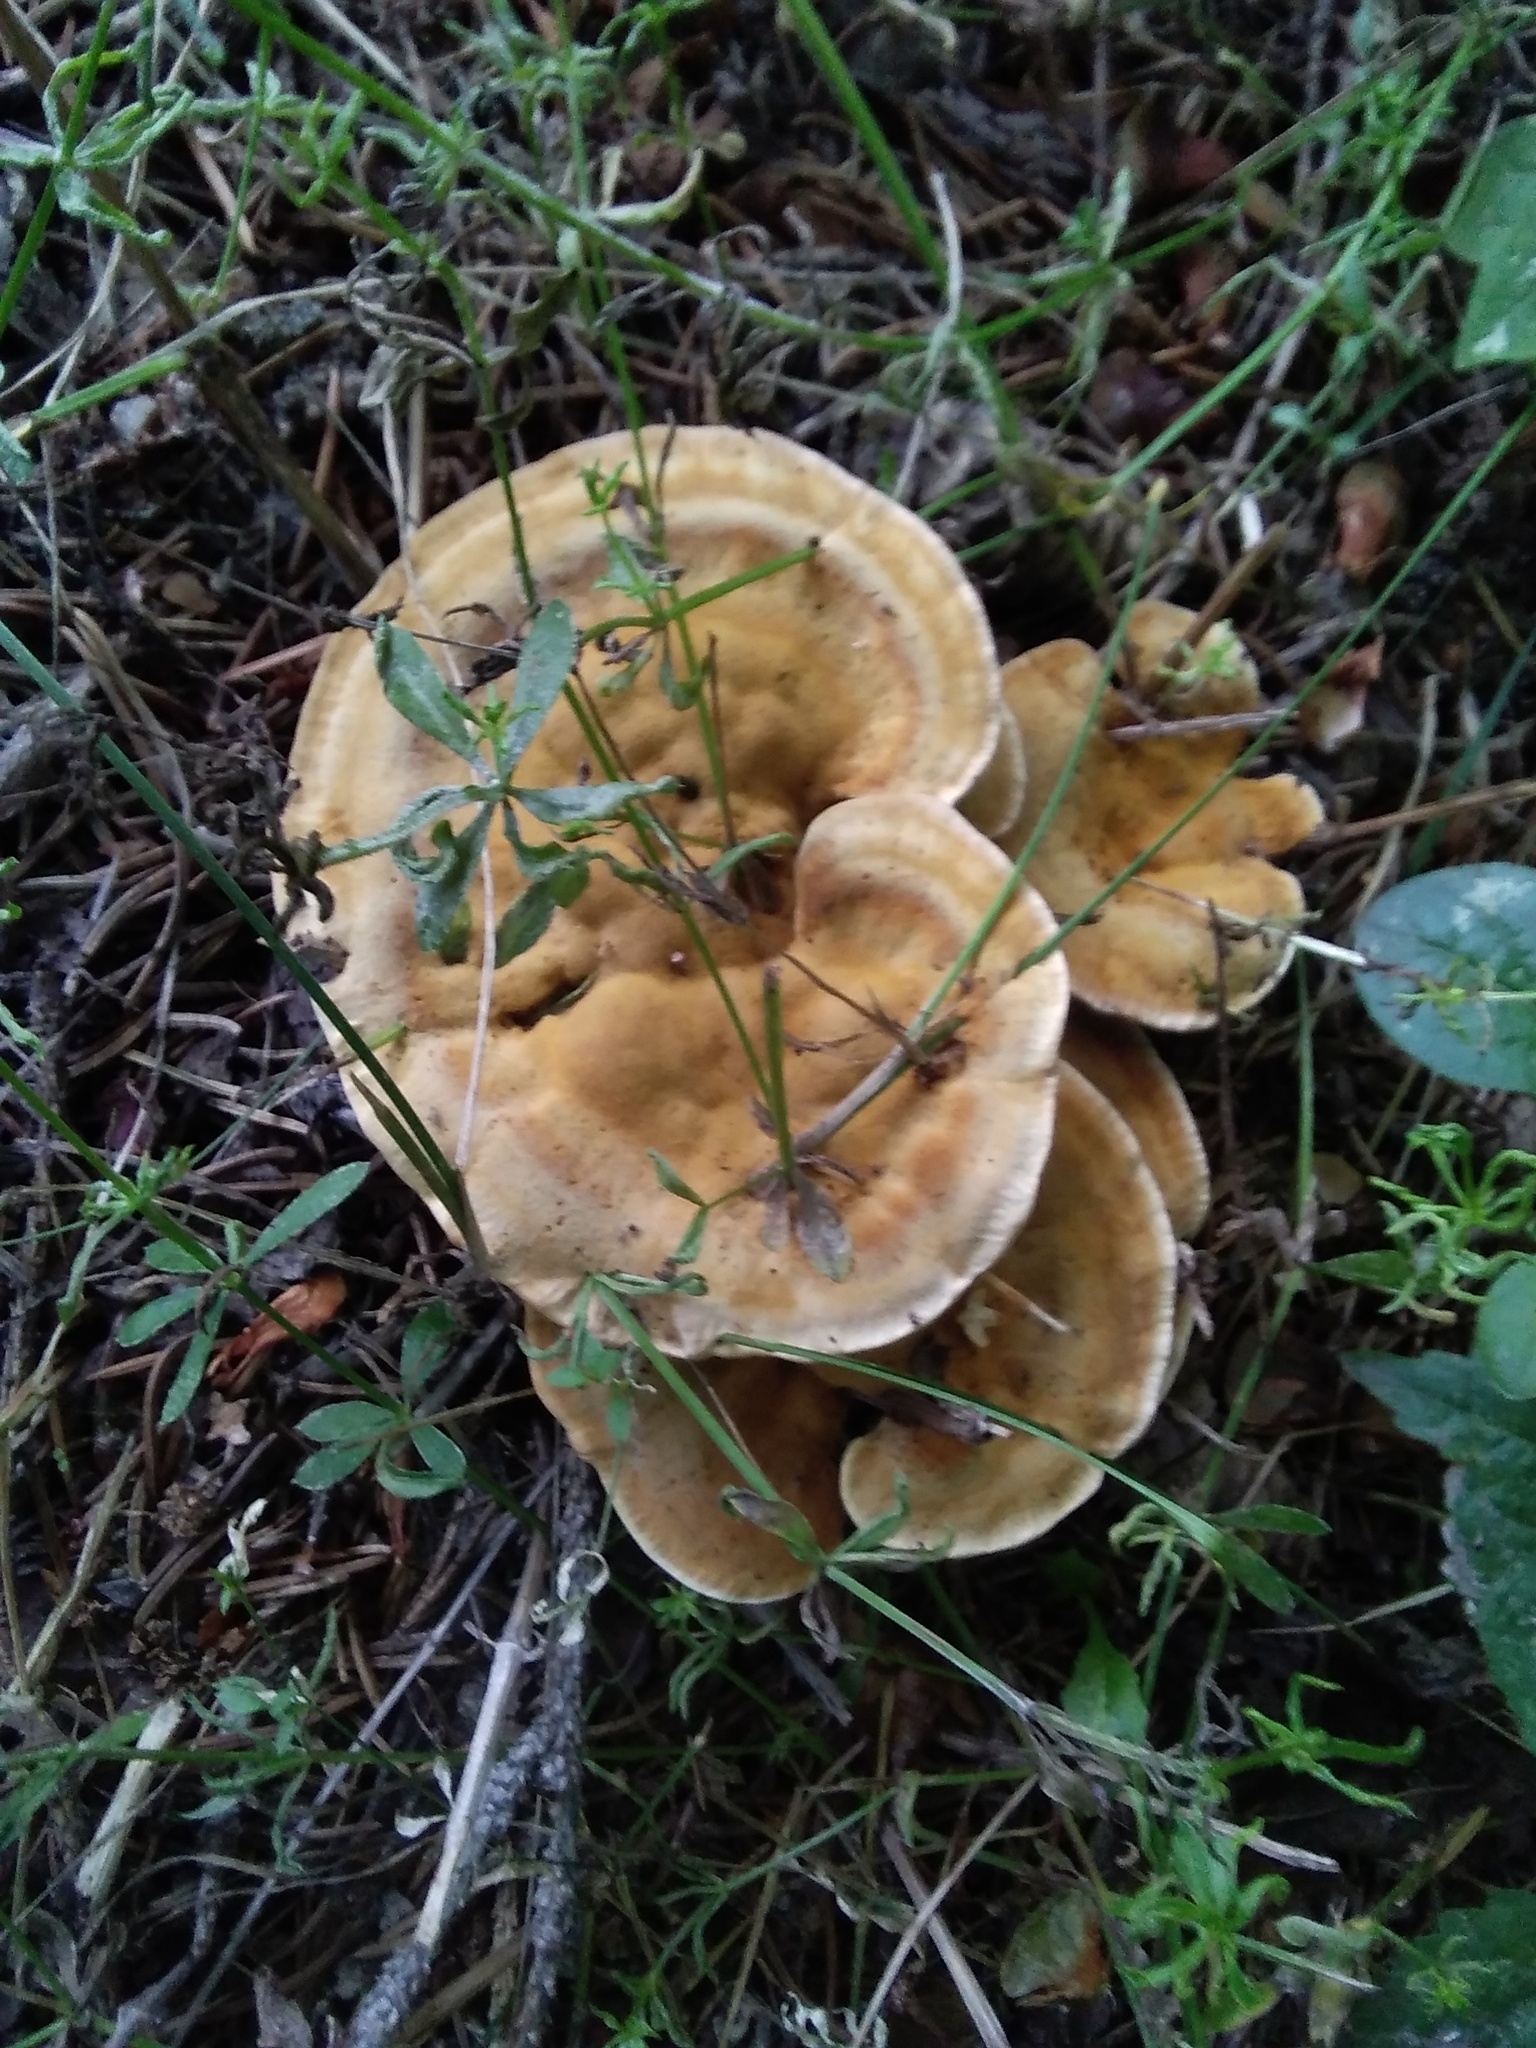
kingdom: Fungi
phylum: Basidiomycota
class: Agaricomycetes
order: Hymenochaetales
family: Hymenochaetaceae
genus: Onnia
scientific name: Onnia tomentosa
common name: Velvet rosette
